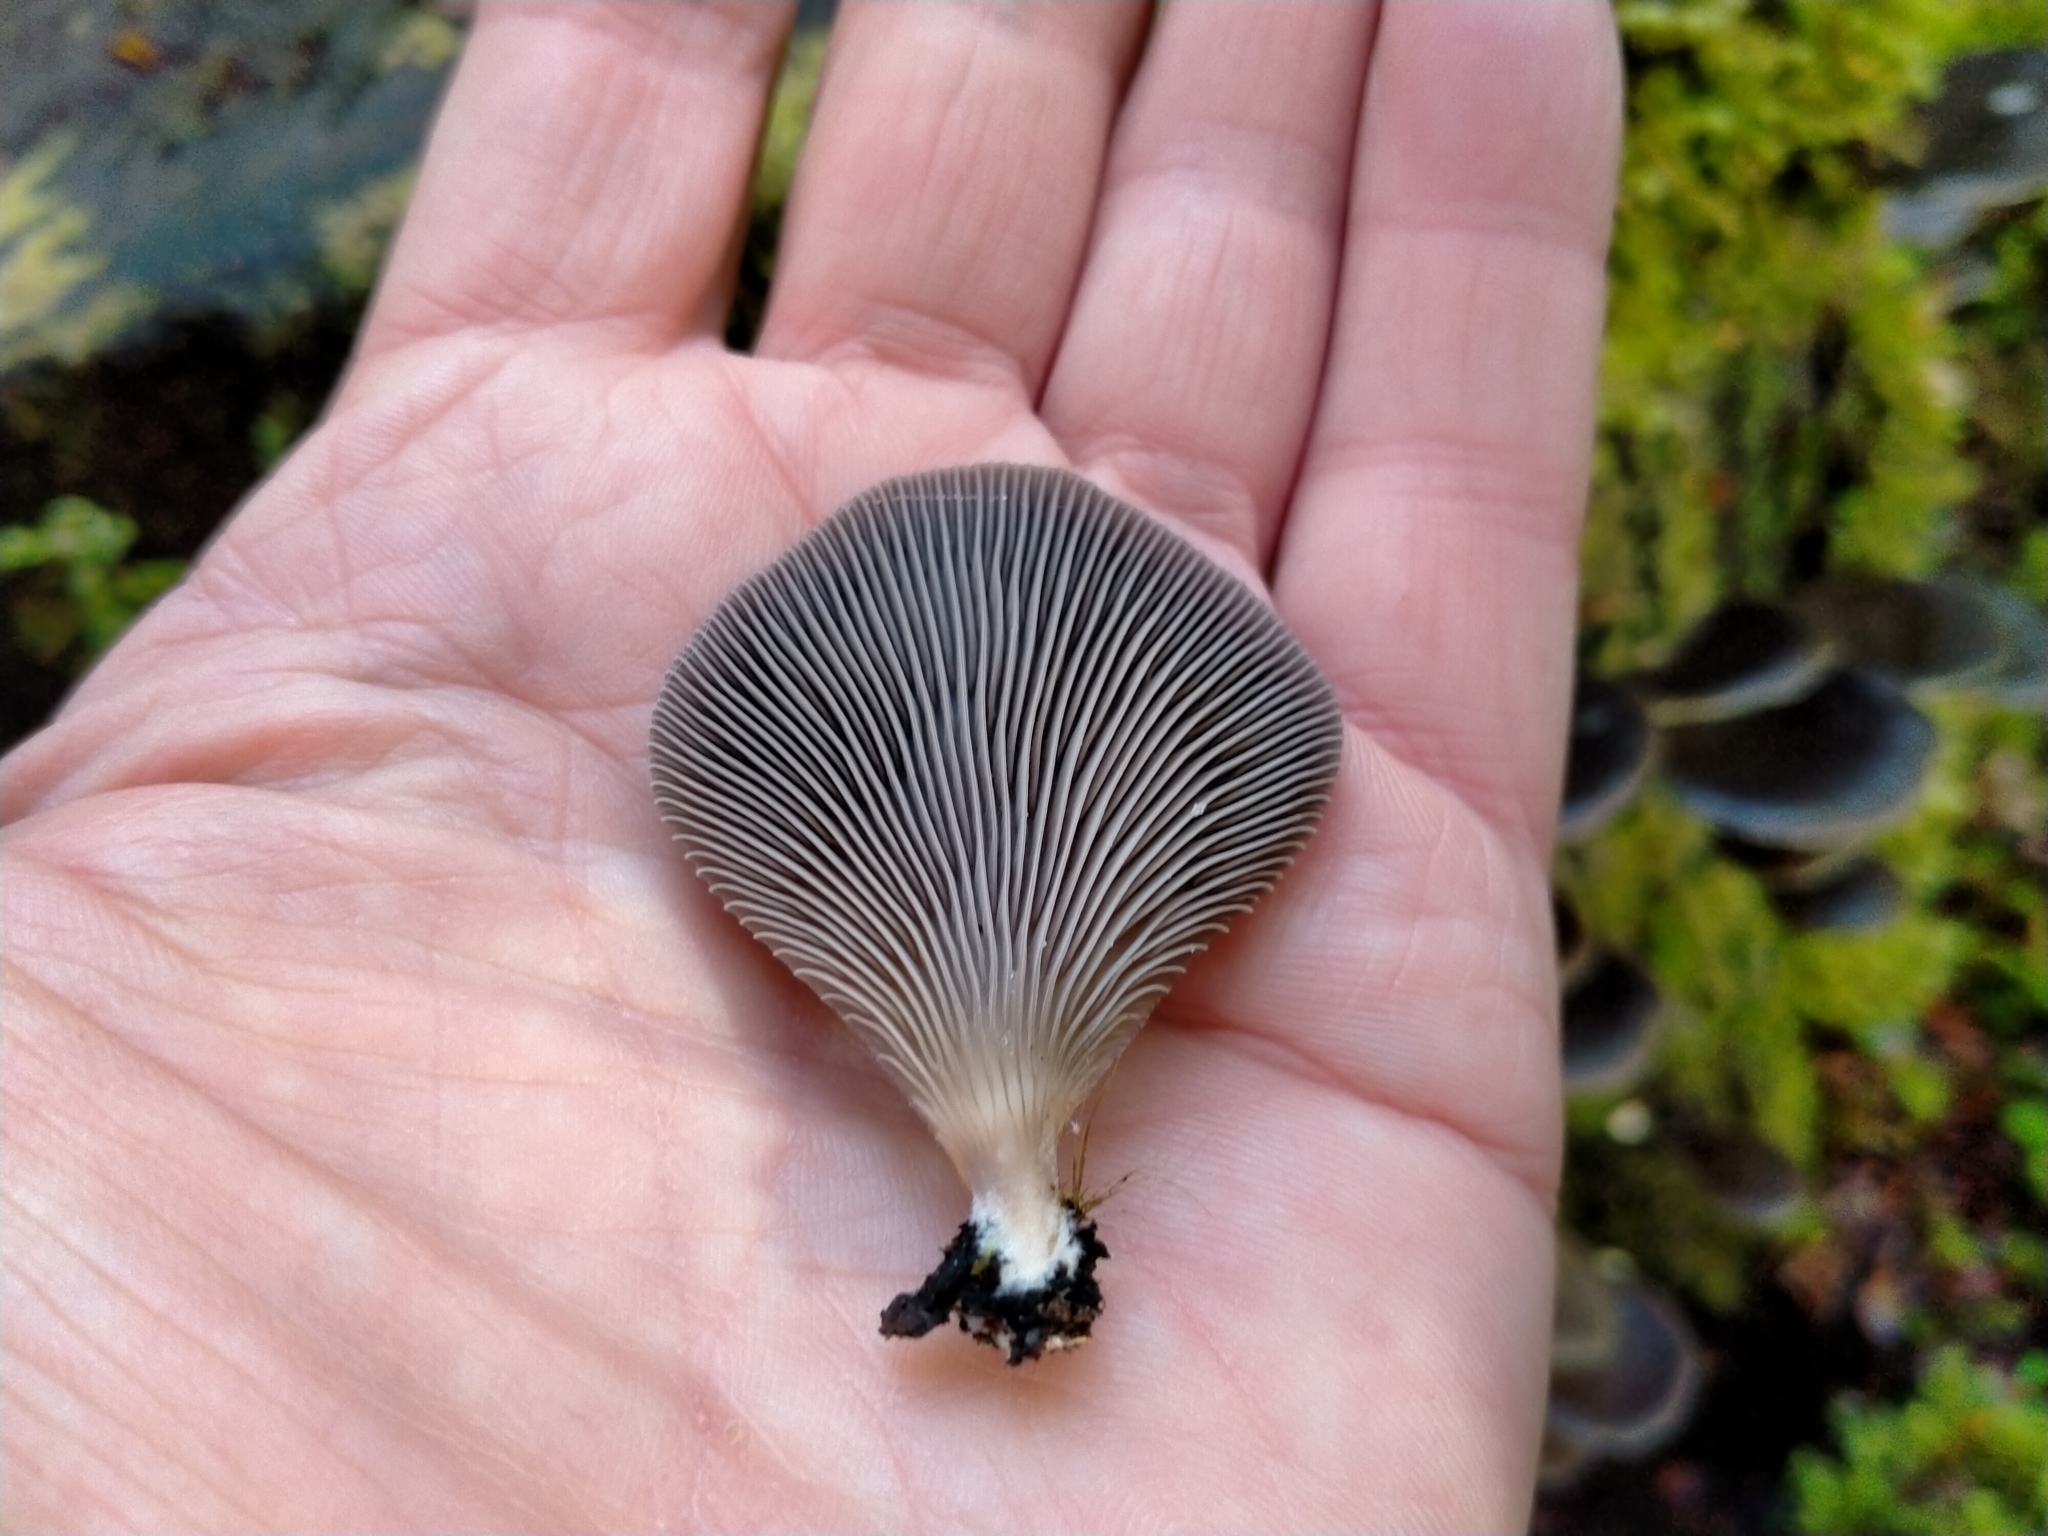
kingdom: Fungi
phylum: Basidiomycota
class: Agaricomycetes
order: Agaricales
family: Mycenaceae
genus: Panellus
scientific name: Panellus longinquus
